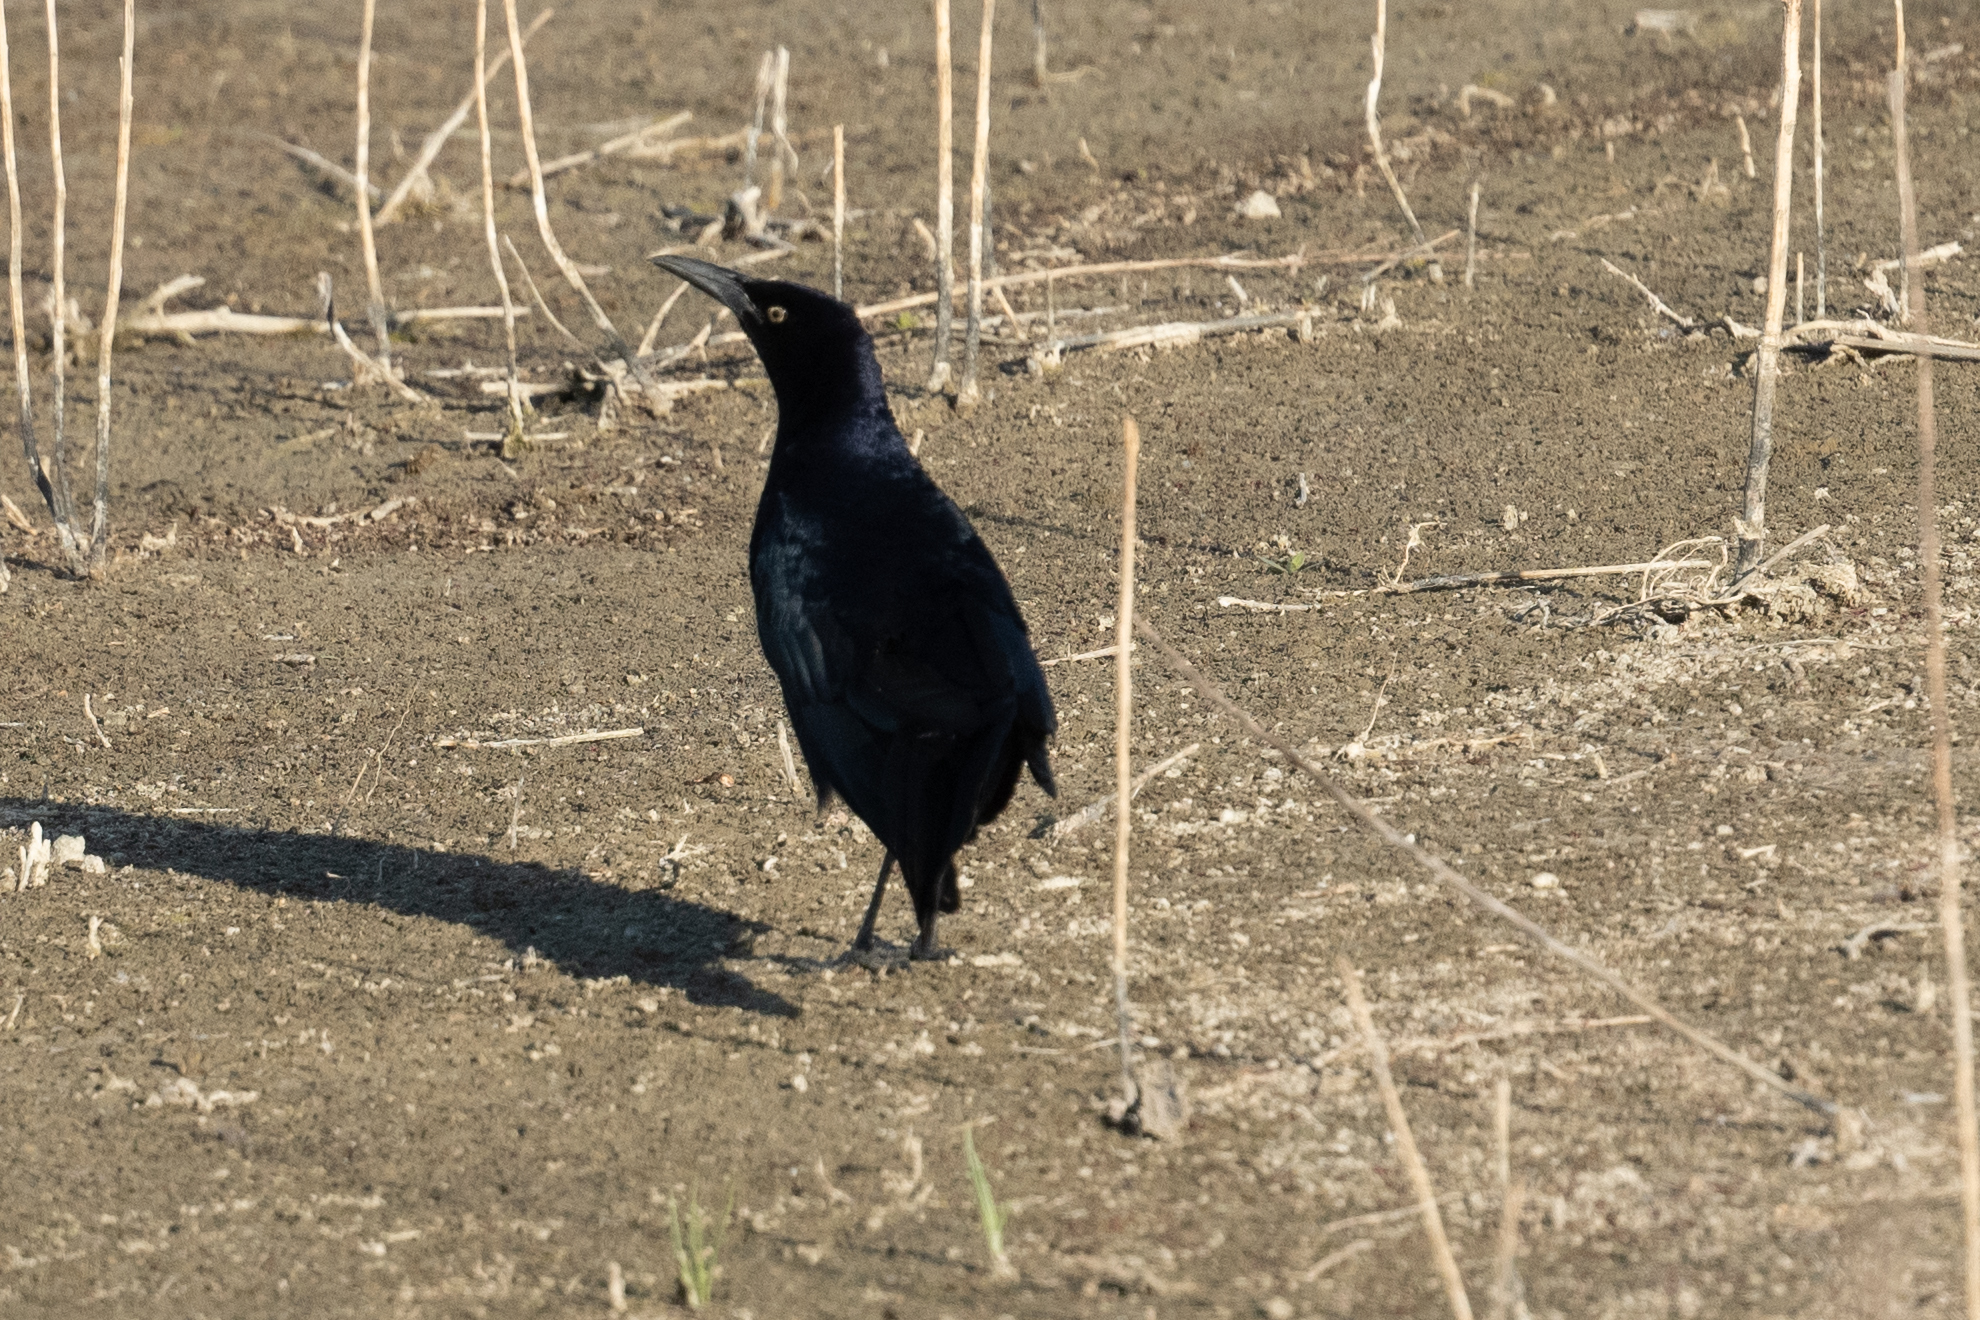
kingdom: Animalia
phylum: Chordata
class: Aves
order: Passeriformes
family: Icteridae
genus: Quiscalus
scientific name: Quiscalus mexicanus
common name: Great-tailed grackle
